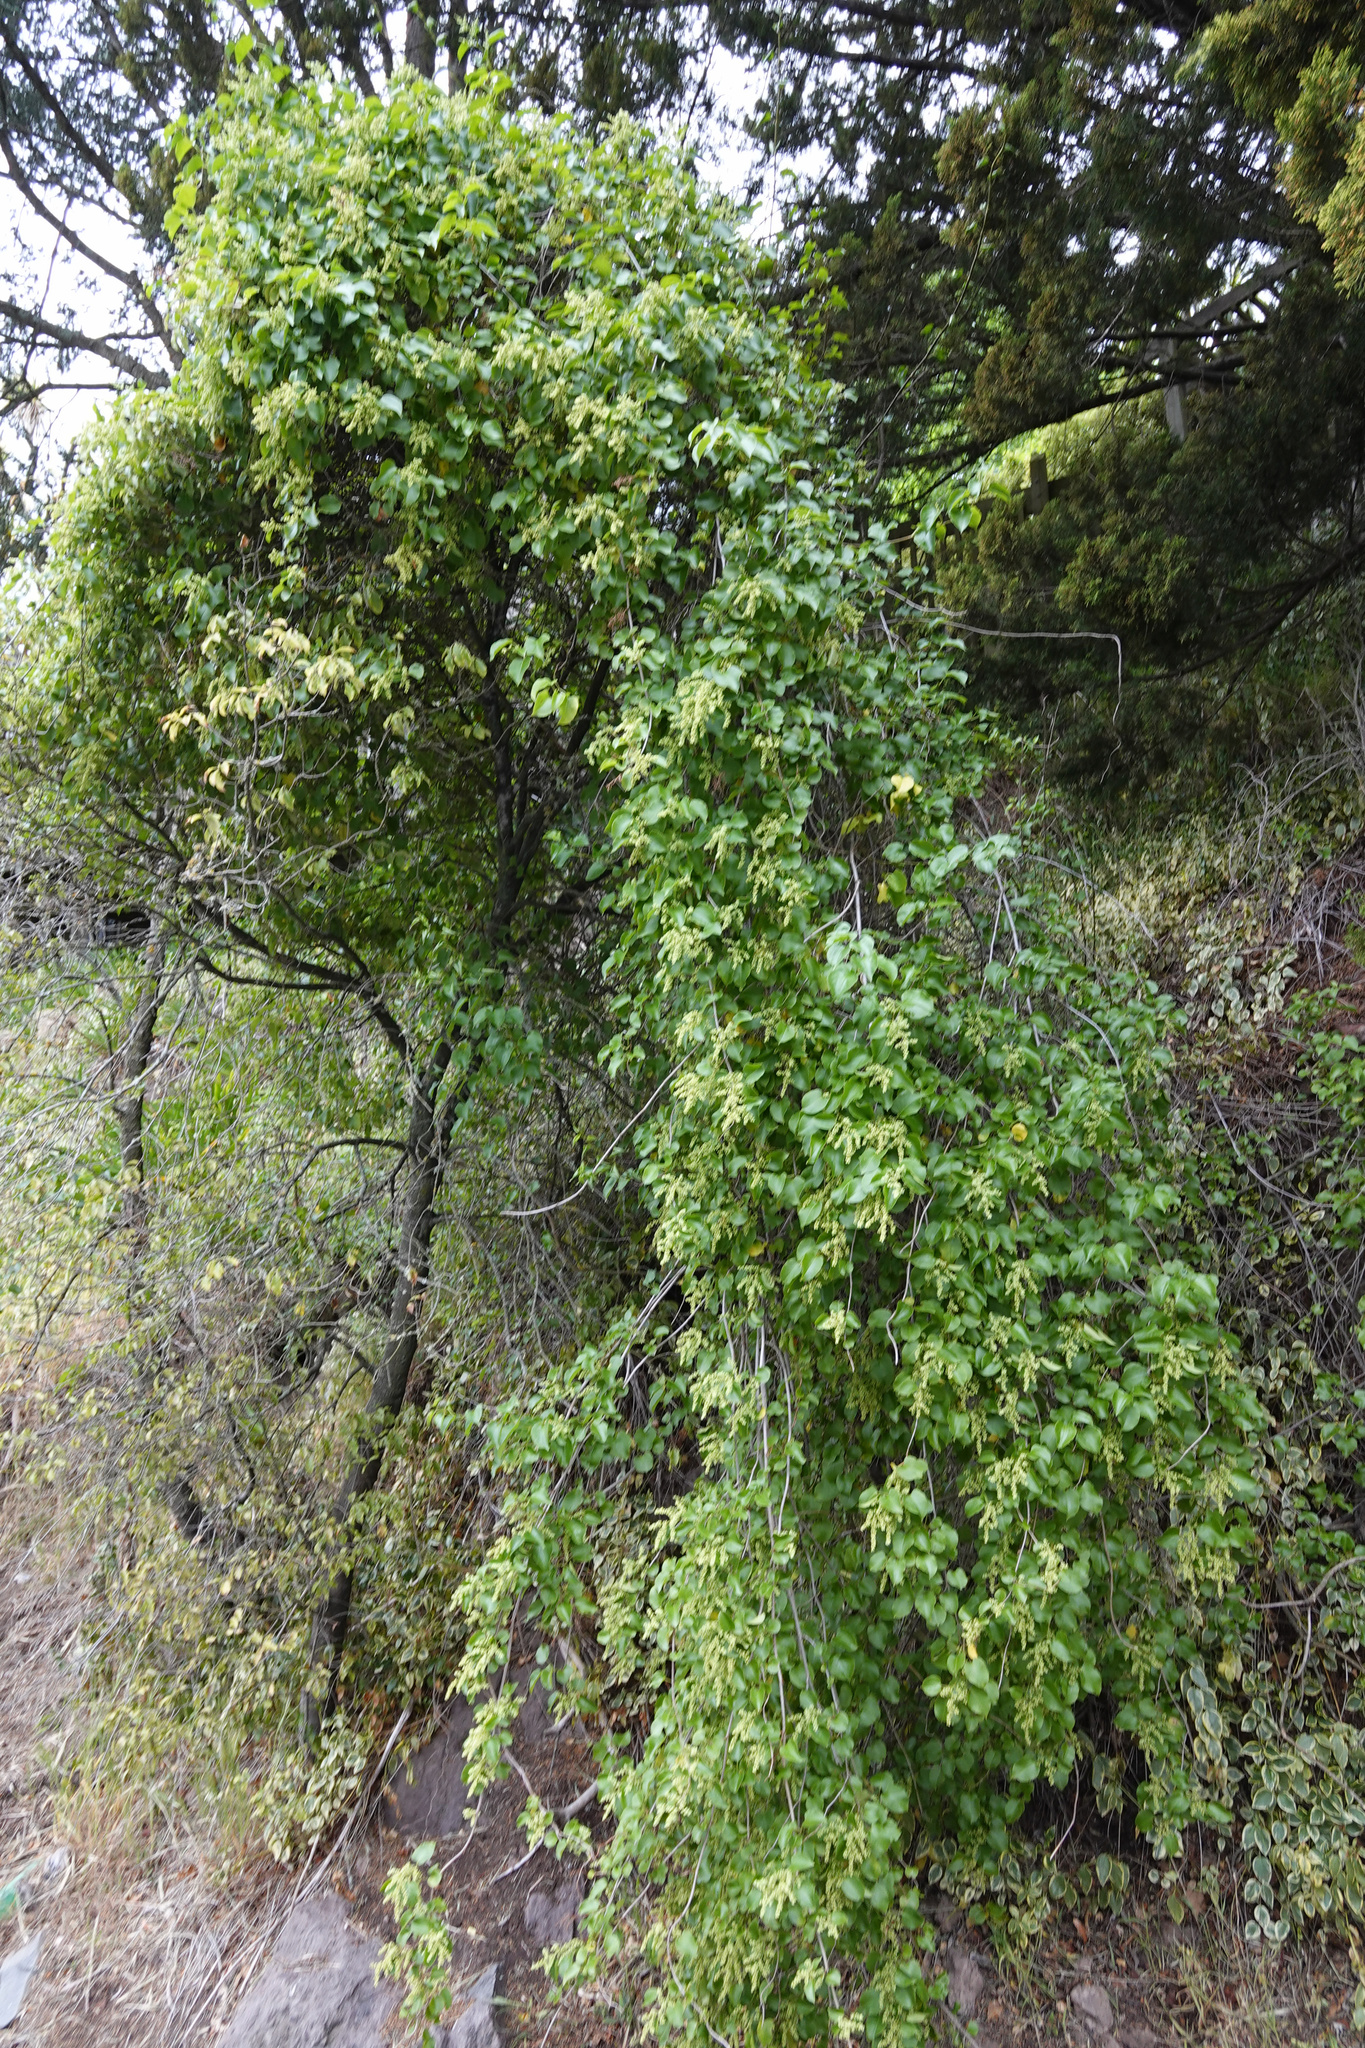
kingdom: Plantae
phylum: Tracheophyta
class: Magnoliopsida
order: Caryophyllales
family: Polygonaceae
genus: Muehlenbeckia
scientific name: Muehlenbeckia australis
